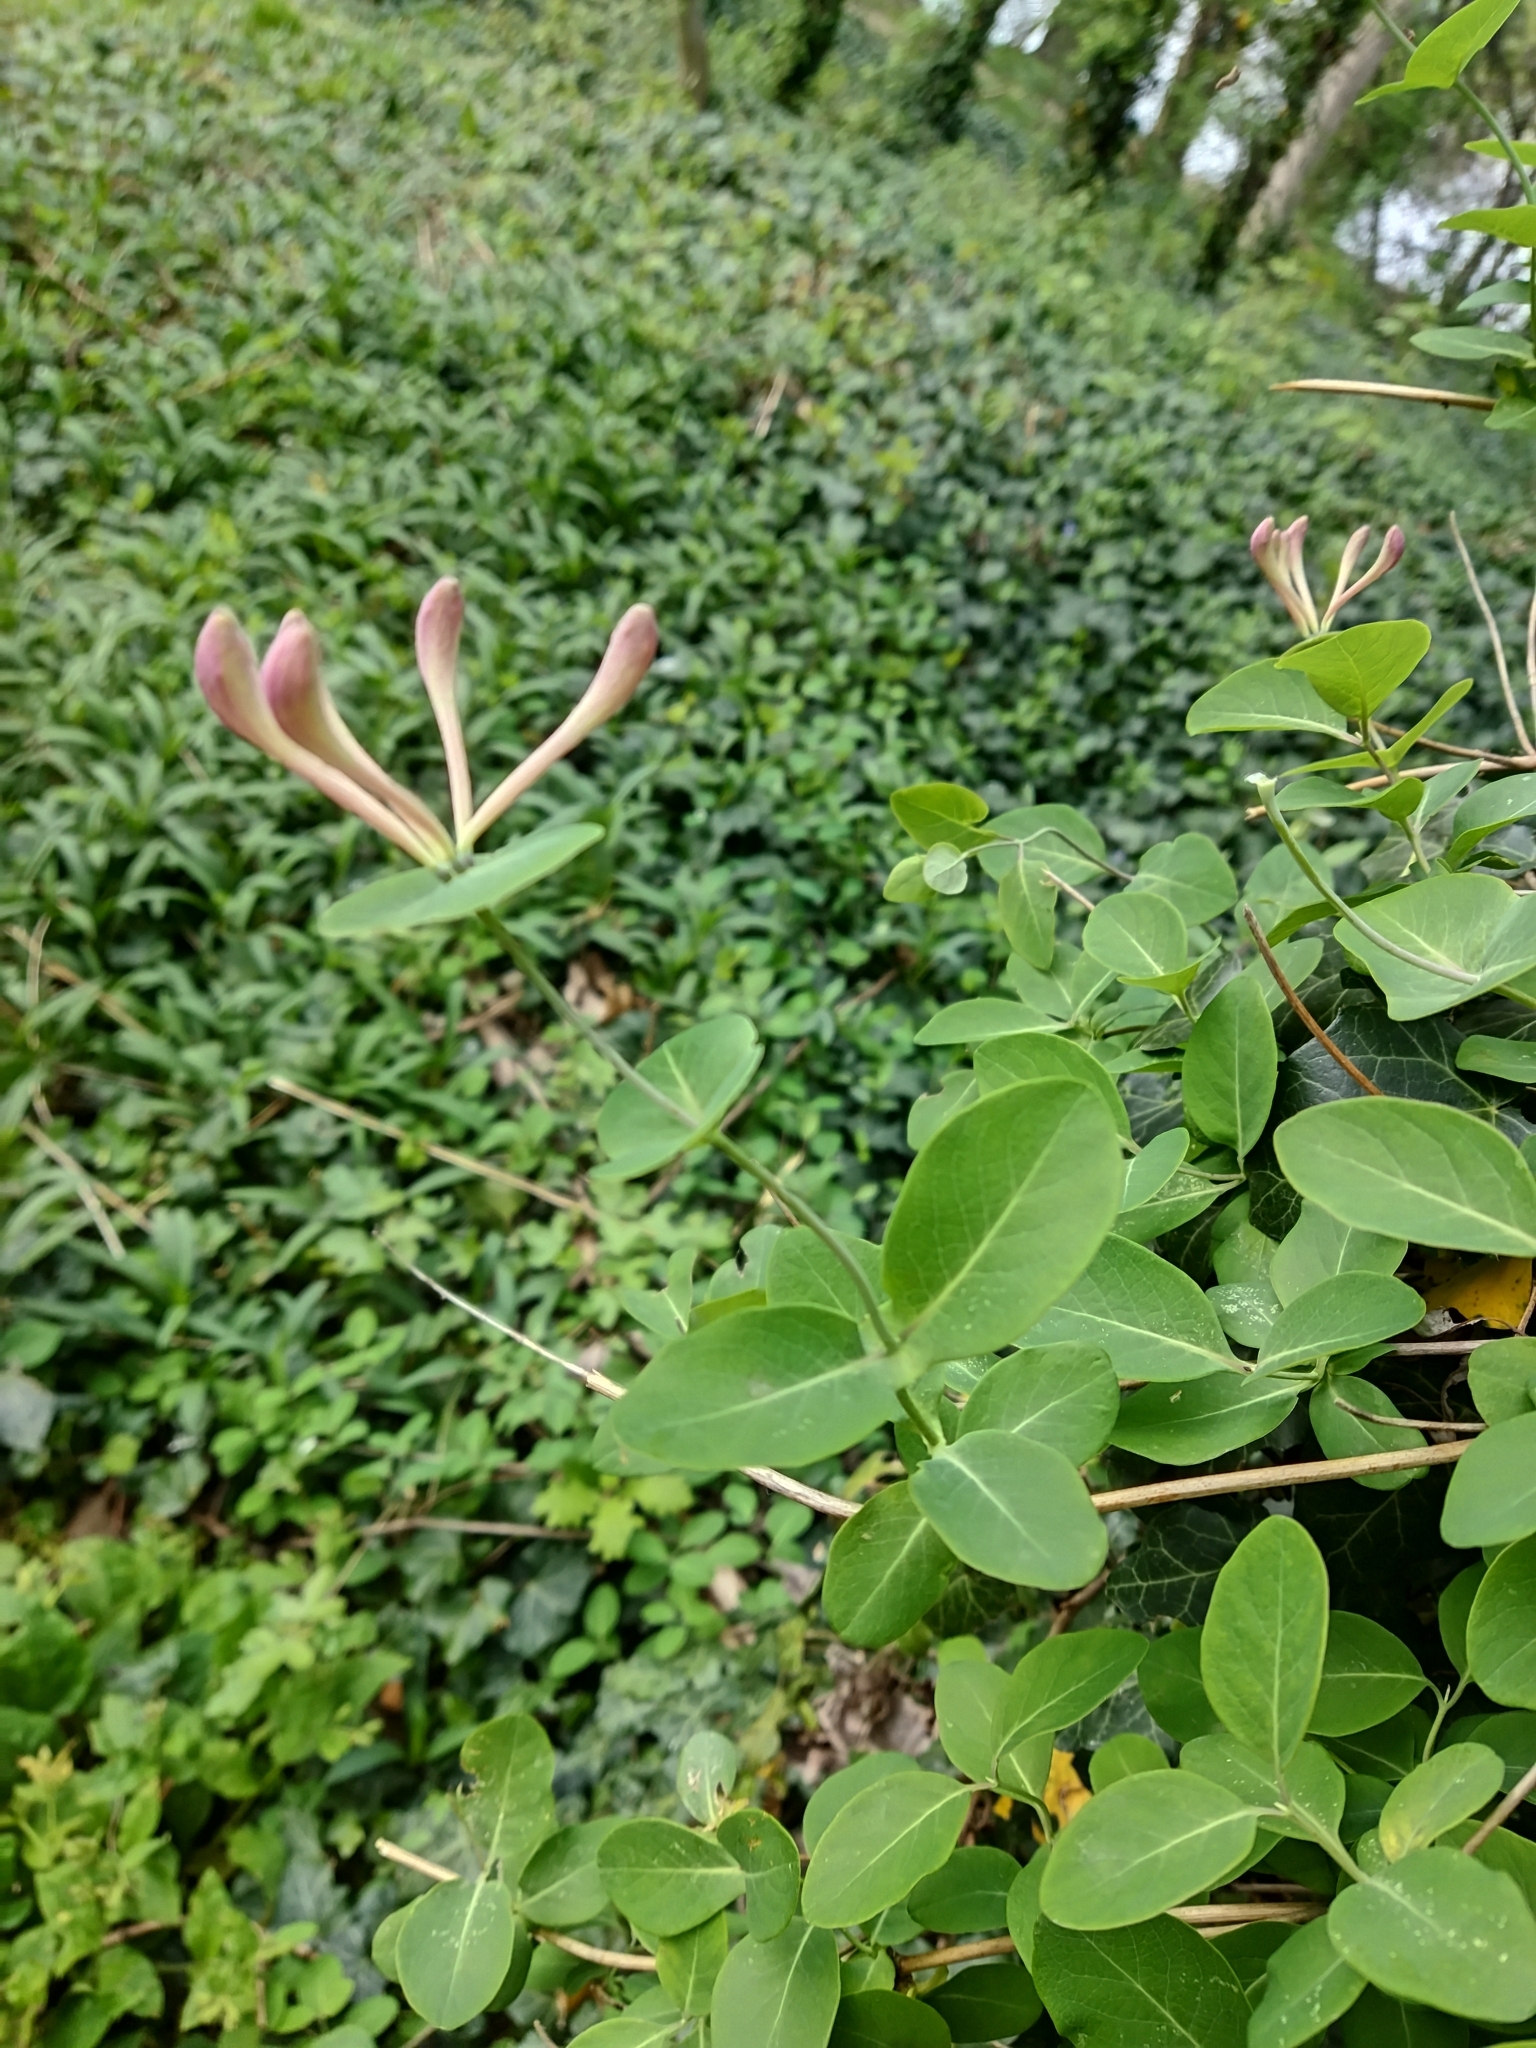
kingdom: Plantae
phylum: Tracheophyta
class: Magnoliopsida
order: Dipsacales
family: Caprifoliaceae
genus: Lonicera
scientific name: Lonicera caprifolium
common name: Perfoliate honeysuckle
